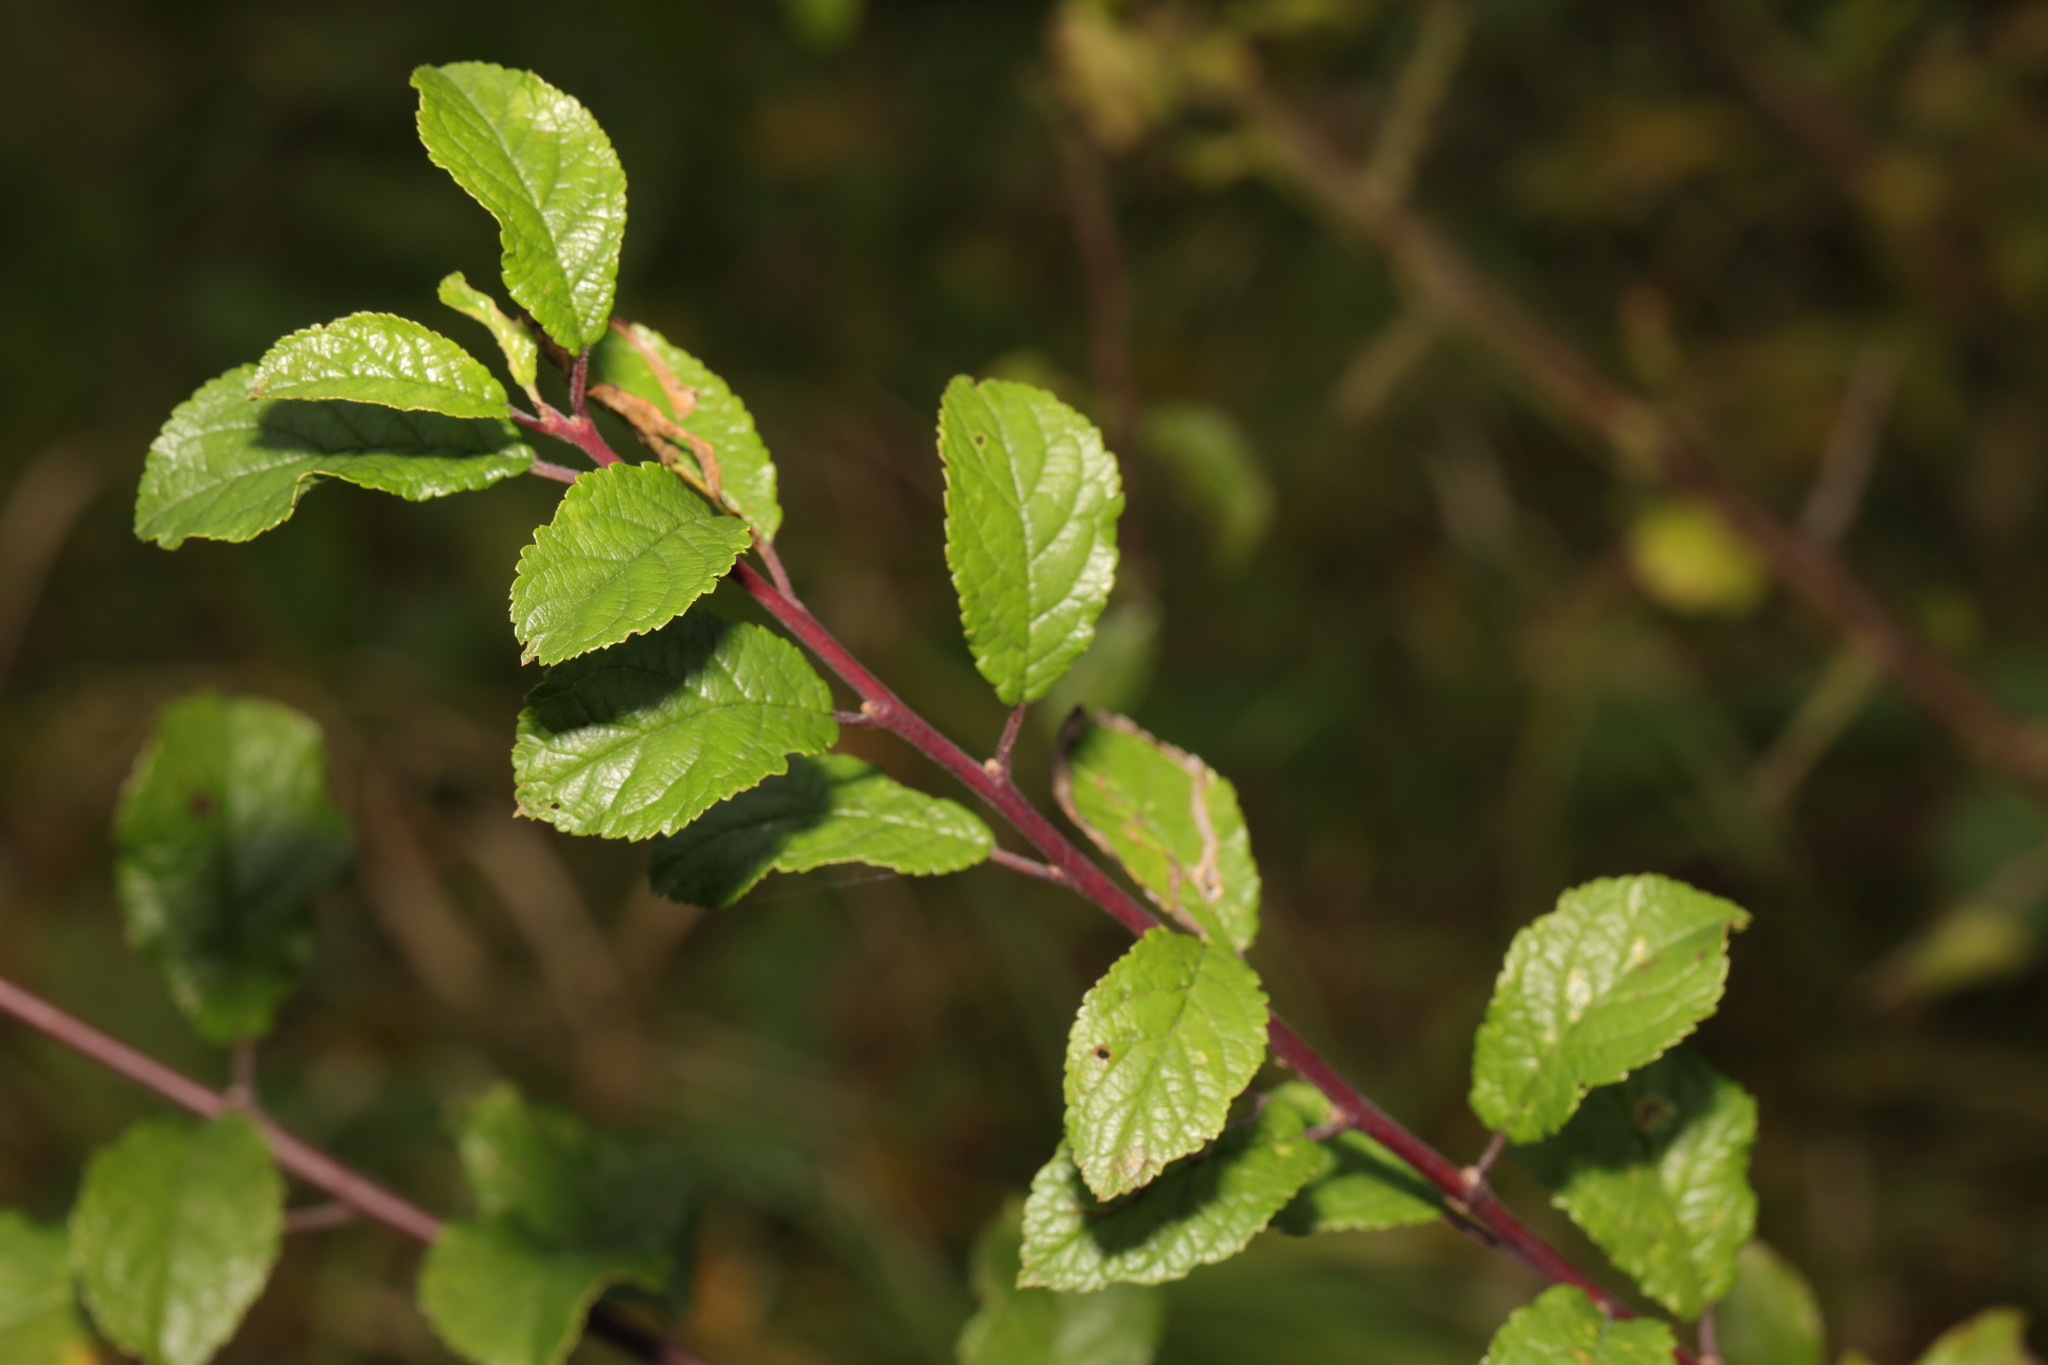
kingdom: Plantae
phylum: Tracheophyta
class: Magnoliopsida
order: Rosales
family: Rosaceae
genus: Prunus
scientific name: Prunus spinosa
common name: Blackthorn
